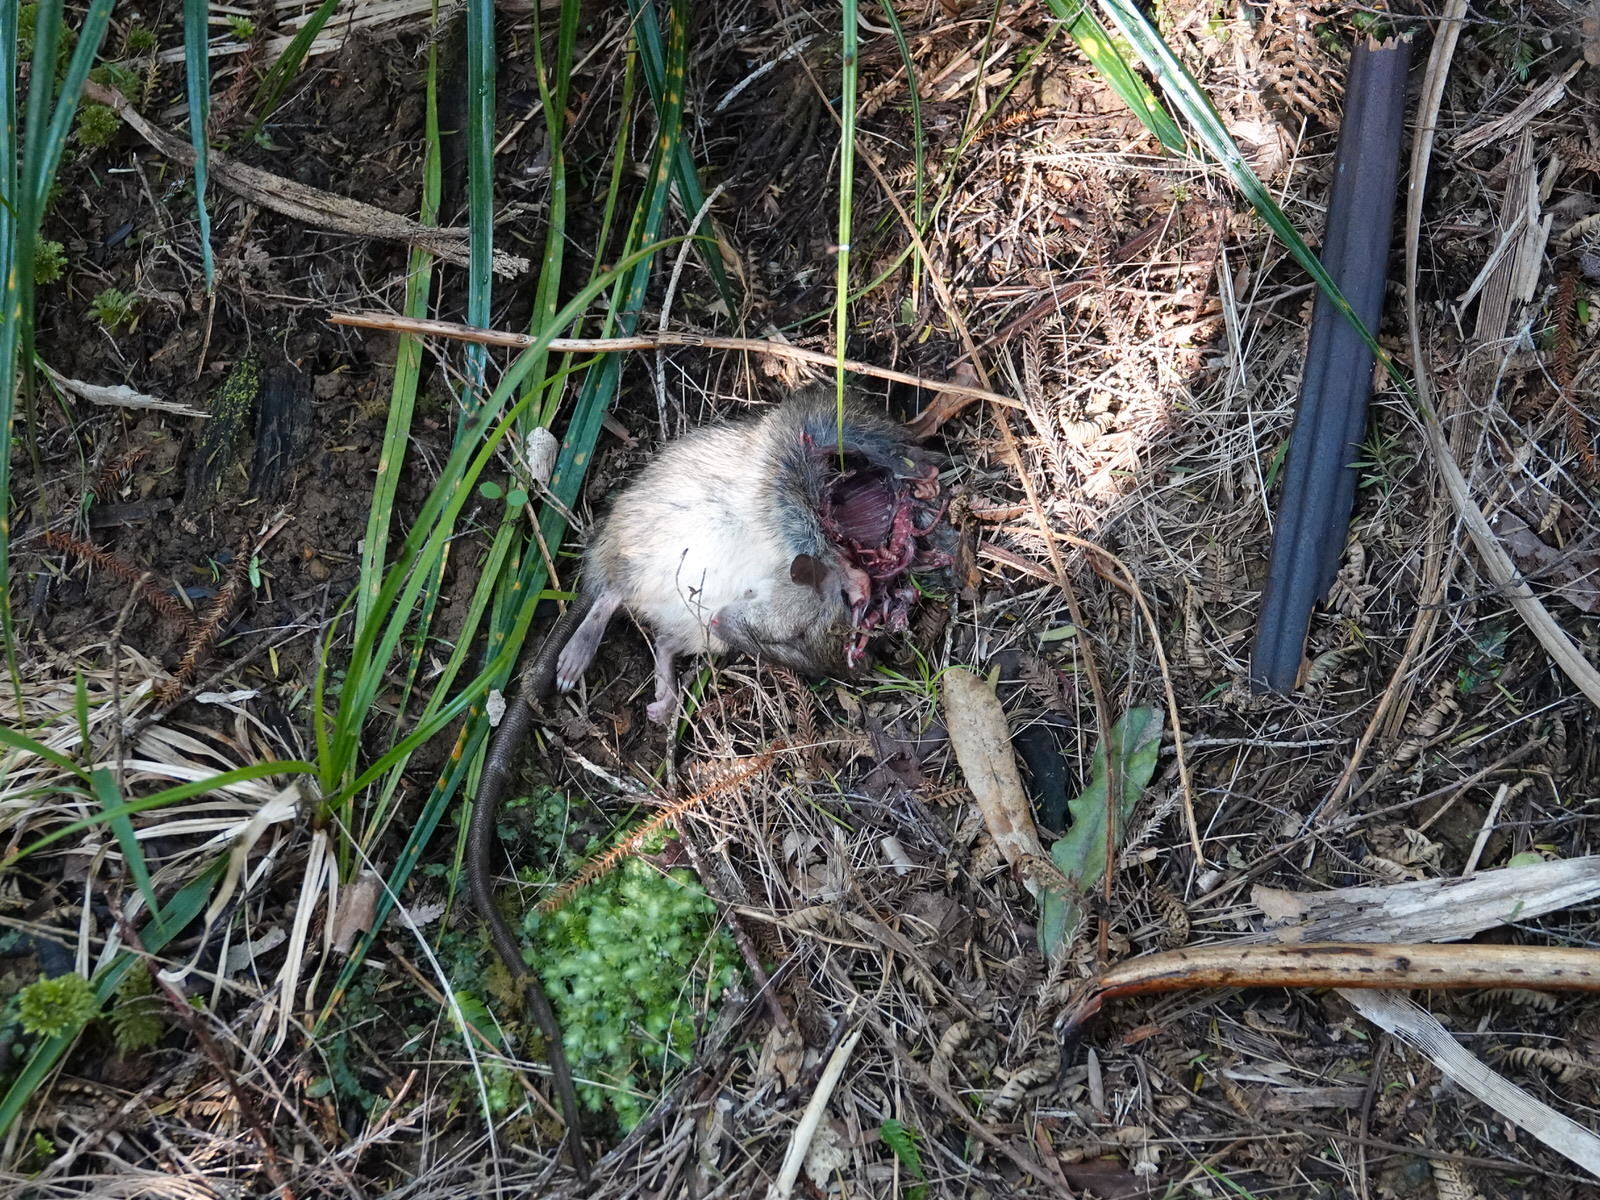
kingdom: Animalia
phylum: Chordata
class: Mammalia
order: Rodentia
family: Muridae
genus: Rattus
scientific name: Rattus rattus
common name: Black rat
